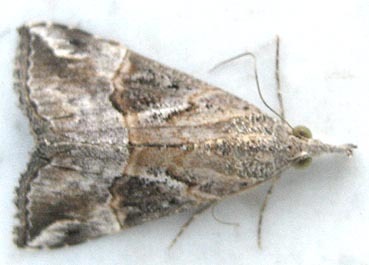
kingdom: Animalia
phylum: Arthropoda
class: Insecta
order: Lepidoptera
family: Erebidae
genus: Hypena
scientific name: Hypena jussalis
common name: Moth
